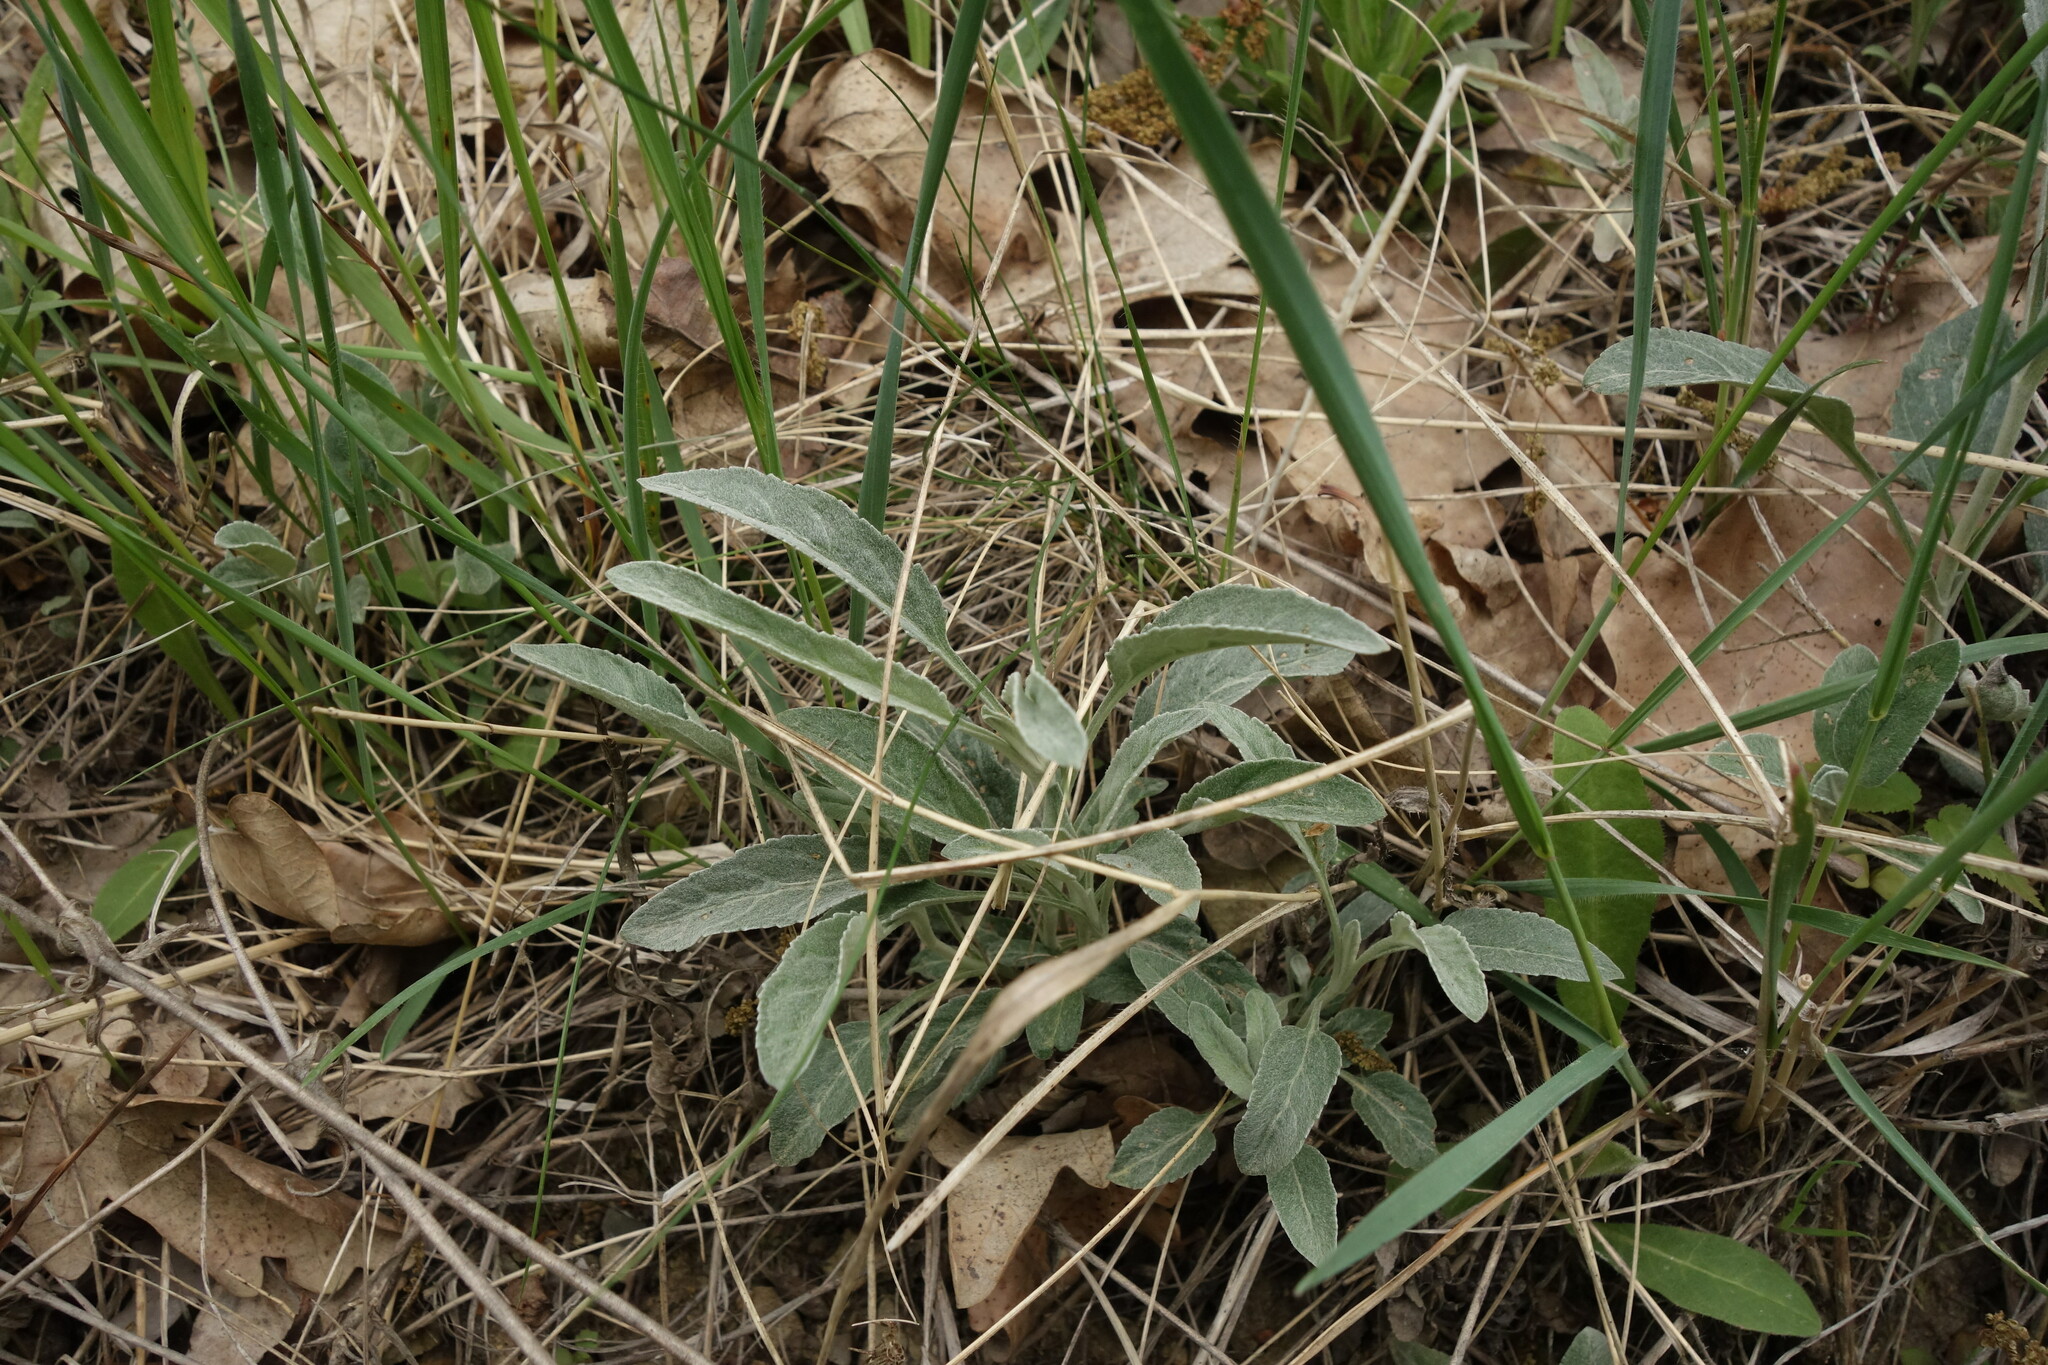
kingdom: Plantae
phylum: Tracheophyta
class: Magnoliopsida
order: Lamiales
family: Plantaginaceae
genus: Veronica
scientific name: Veronica incana
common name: Silver speedwell
